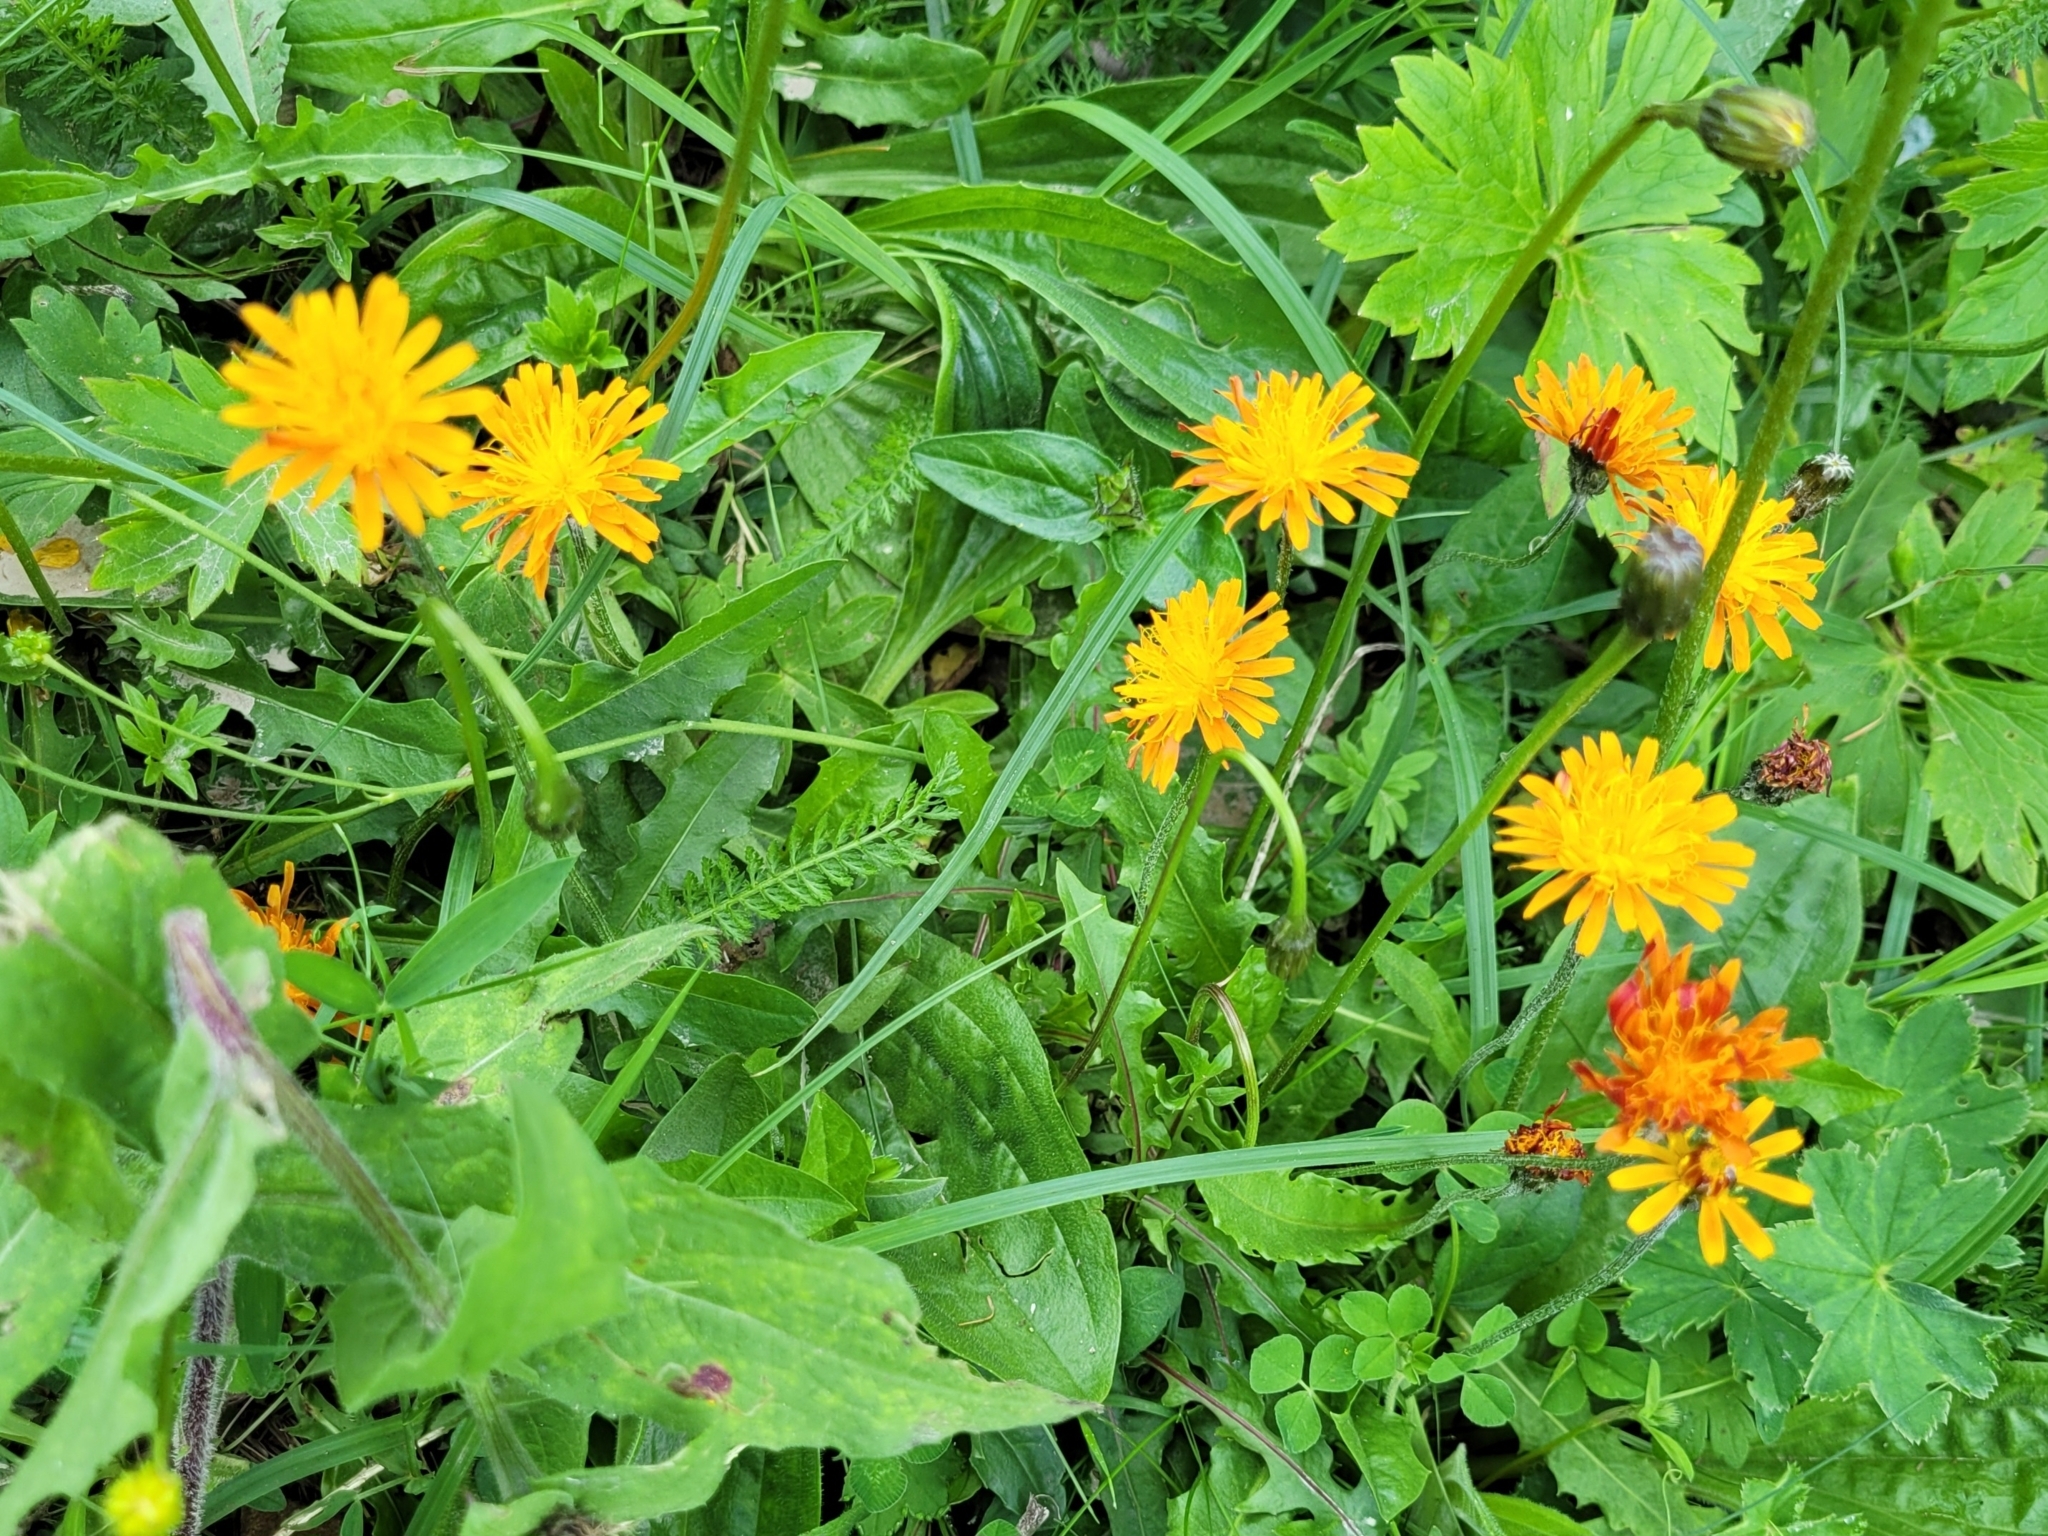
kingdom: Plantae
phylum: Tracheophyta
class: Magnoliopsida
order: Asterales
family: Asteraceae
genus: Crepis
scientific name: Crepis aurea
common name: Golden hawk's-beard
